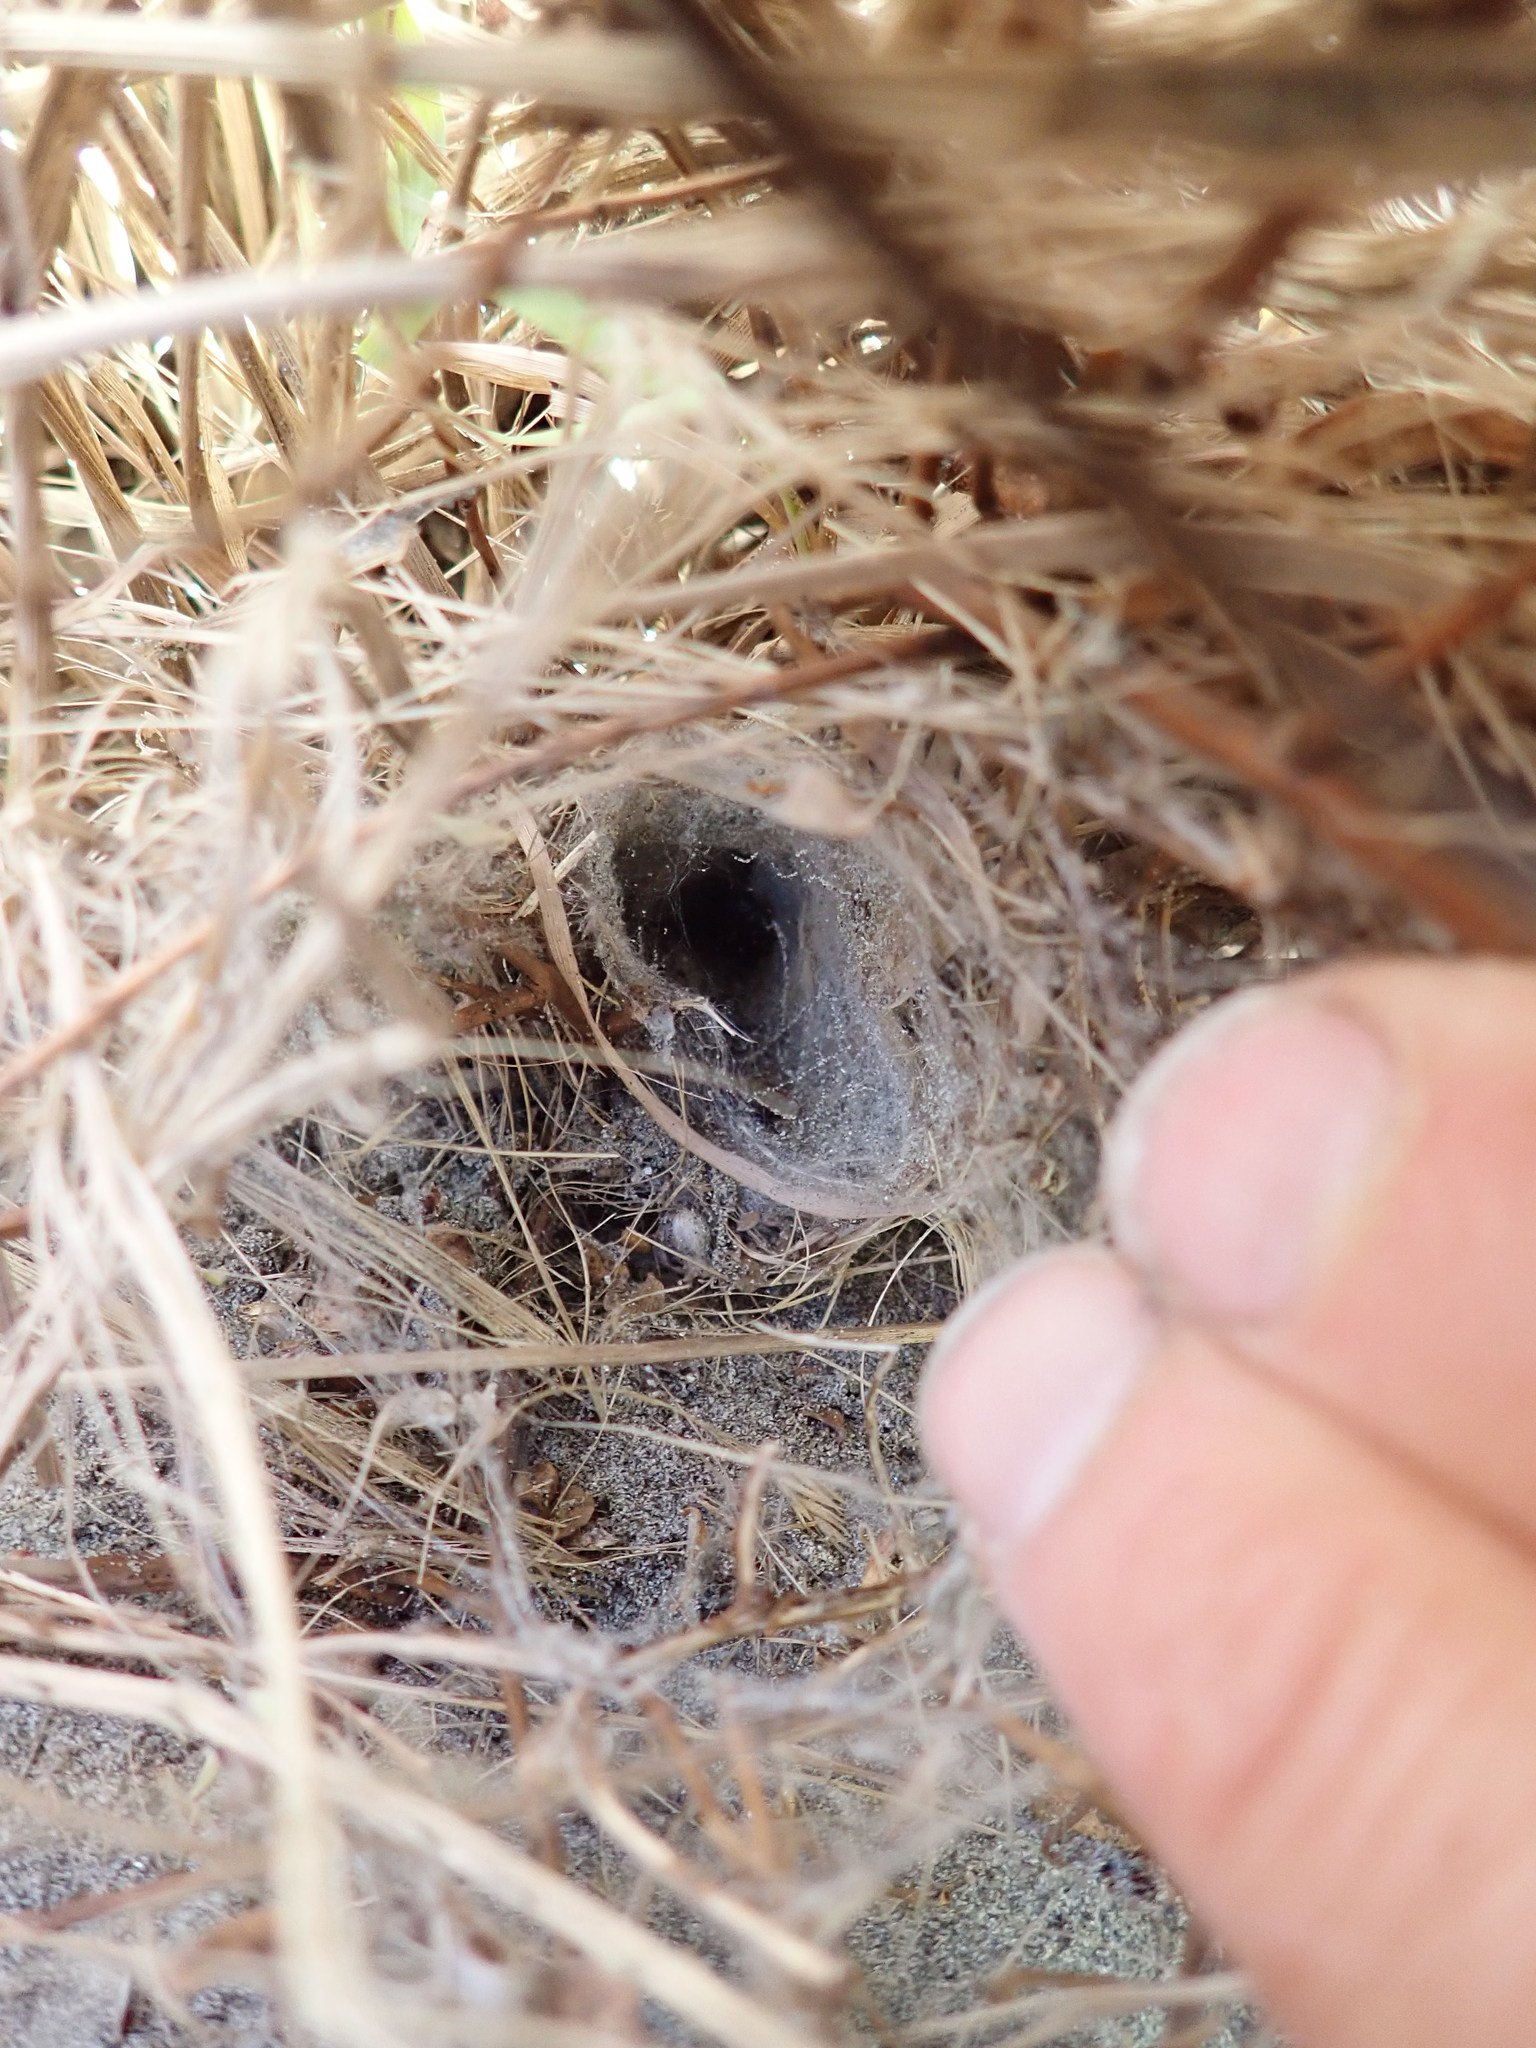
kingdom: Animalia
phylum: Arthropoda
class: Arachnida
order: Araneae
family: Theridiidae
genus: Latrodectus
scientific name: Latrodectus katipo
